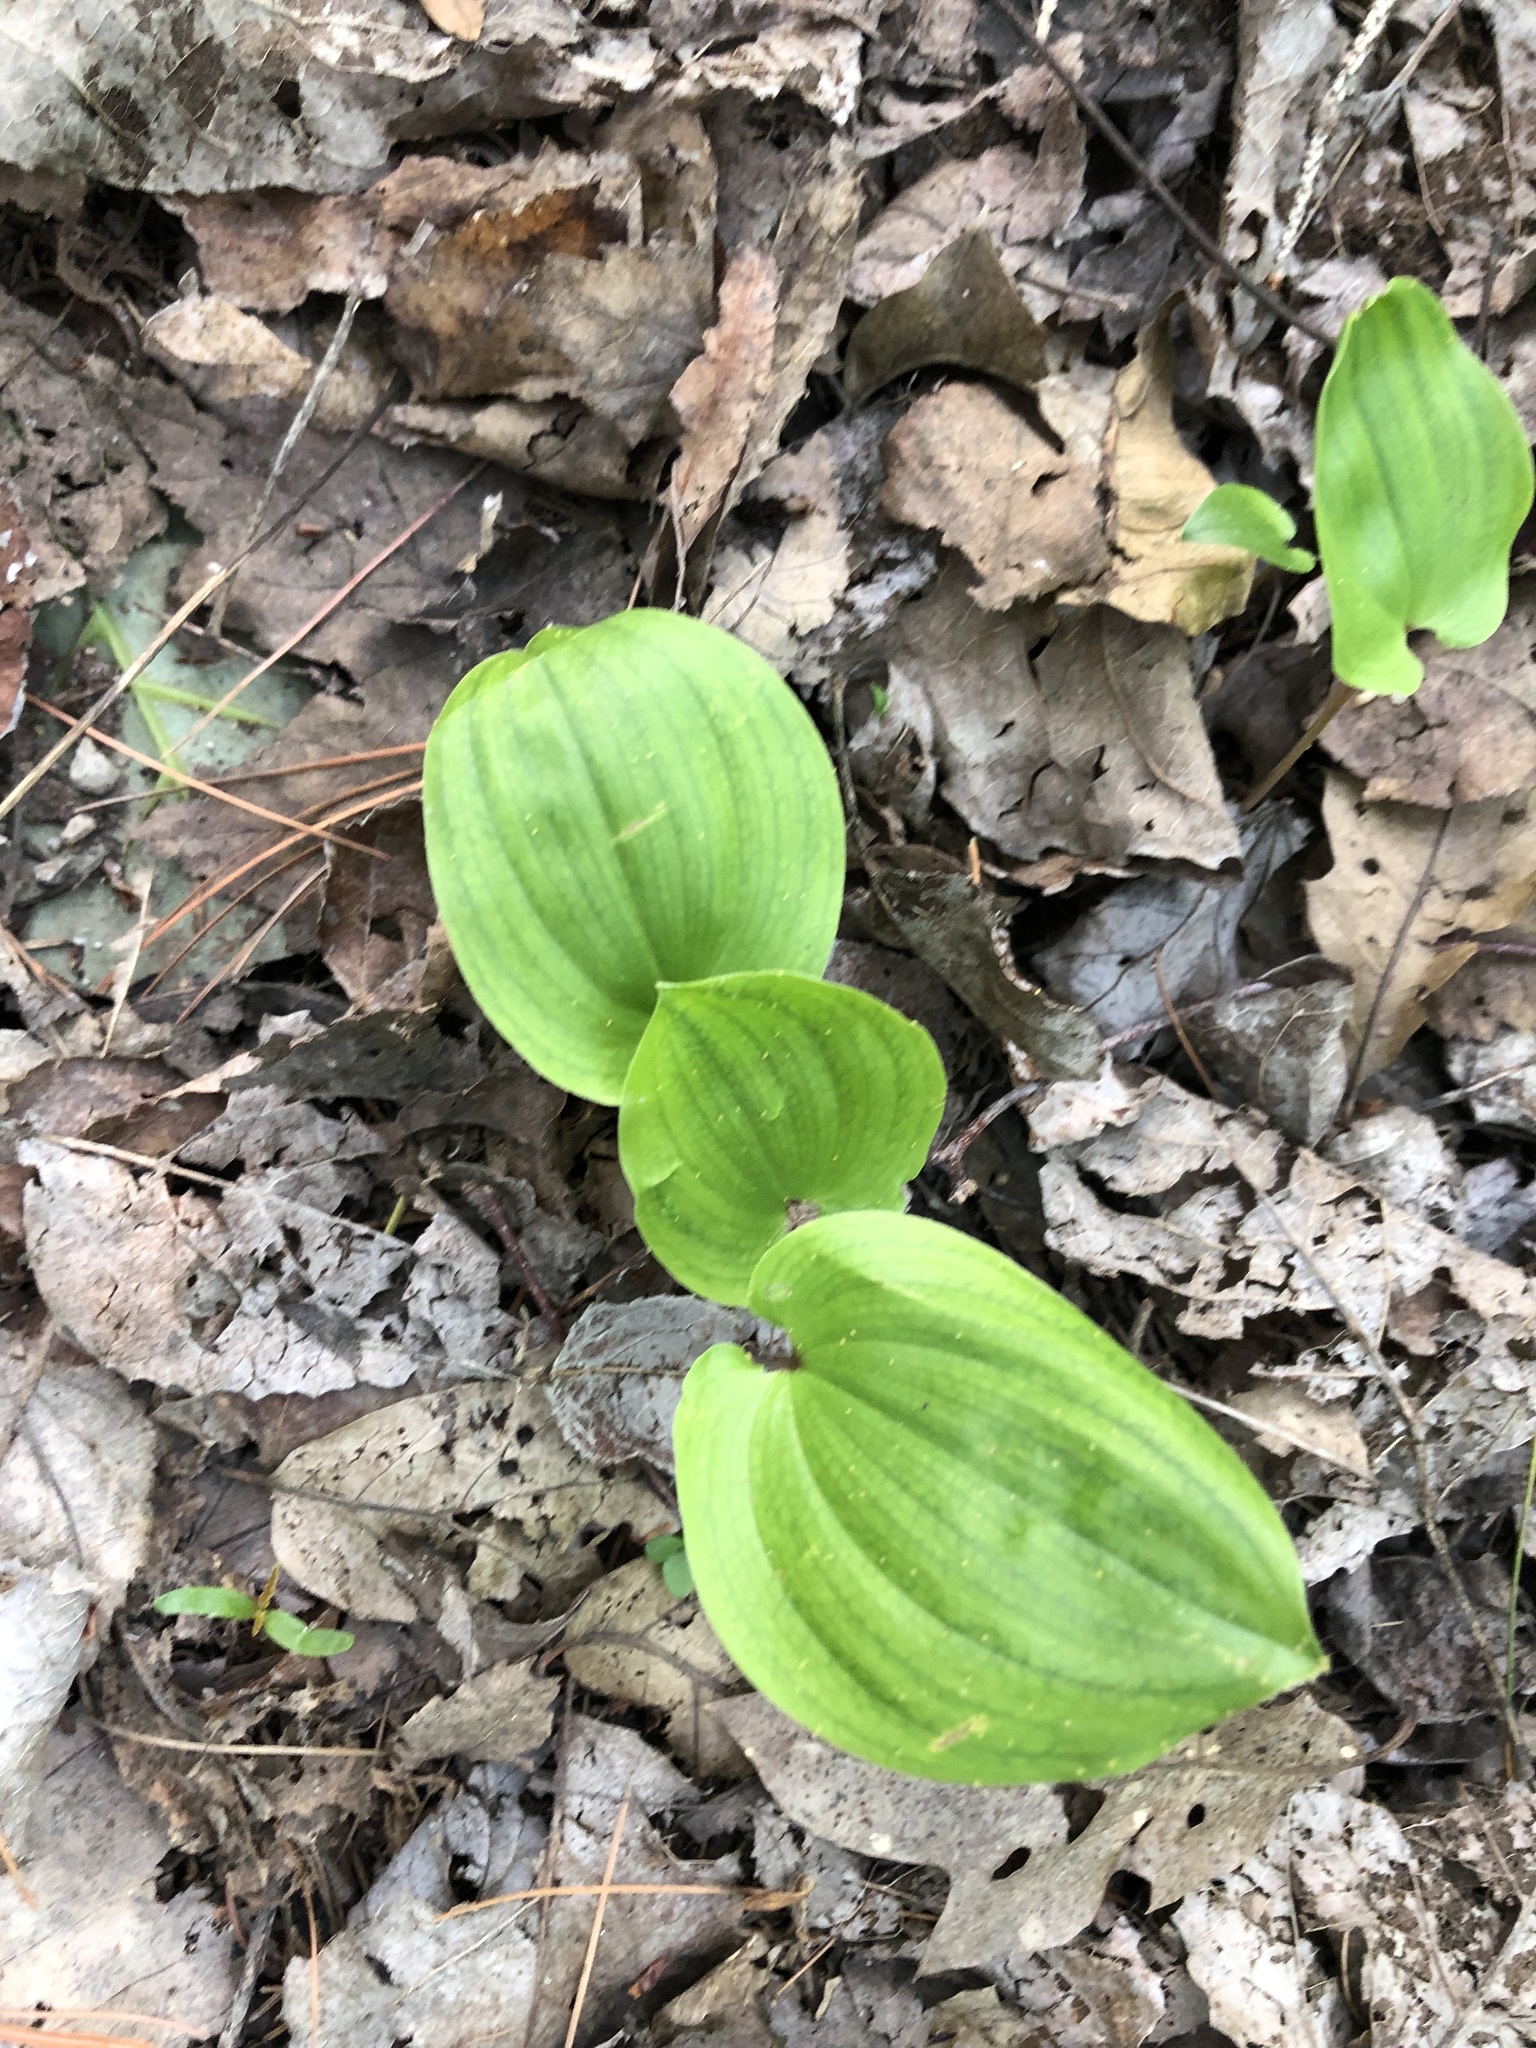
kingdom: Plantae
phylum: Tracheophyta
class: Liliopsida
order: Asparagales
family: Asparagaceae
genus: Maianthemum
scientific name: Maianthemum canadense
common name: False lily-of-the-valley
